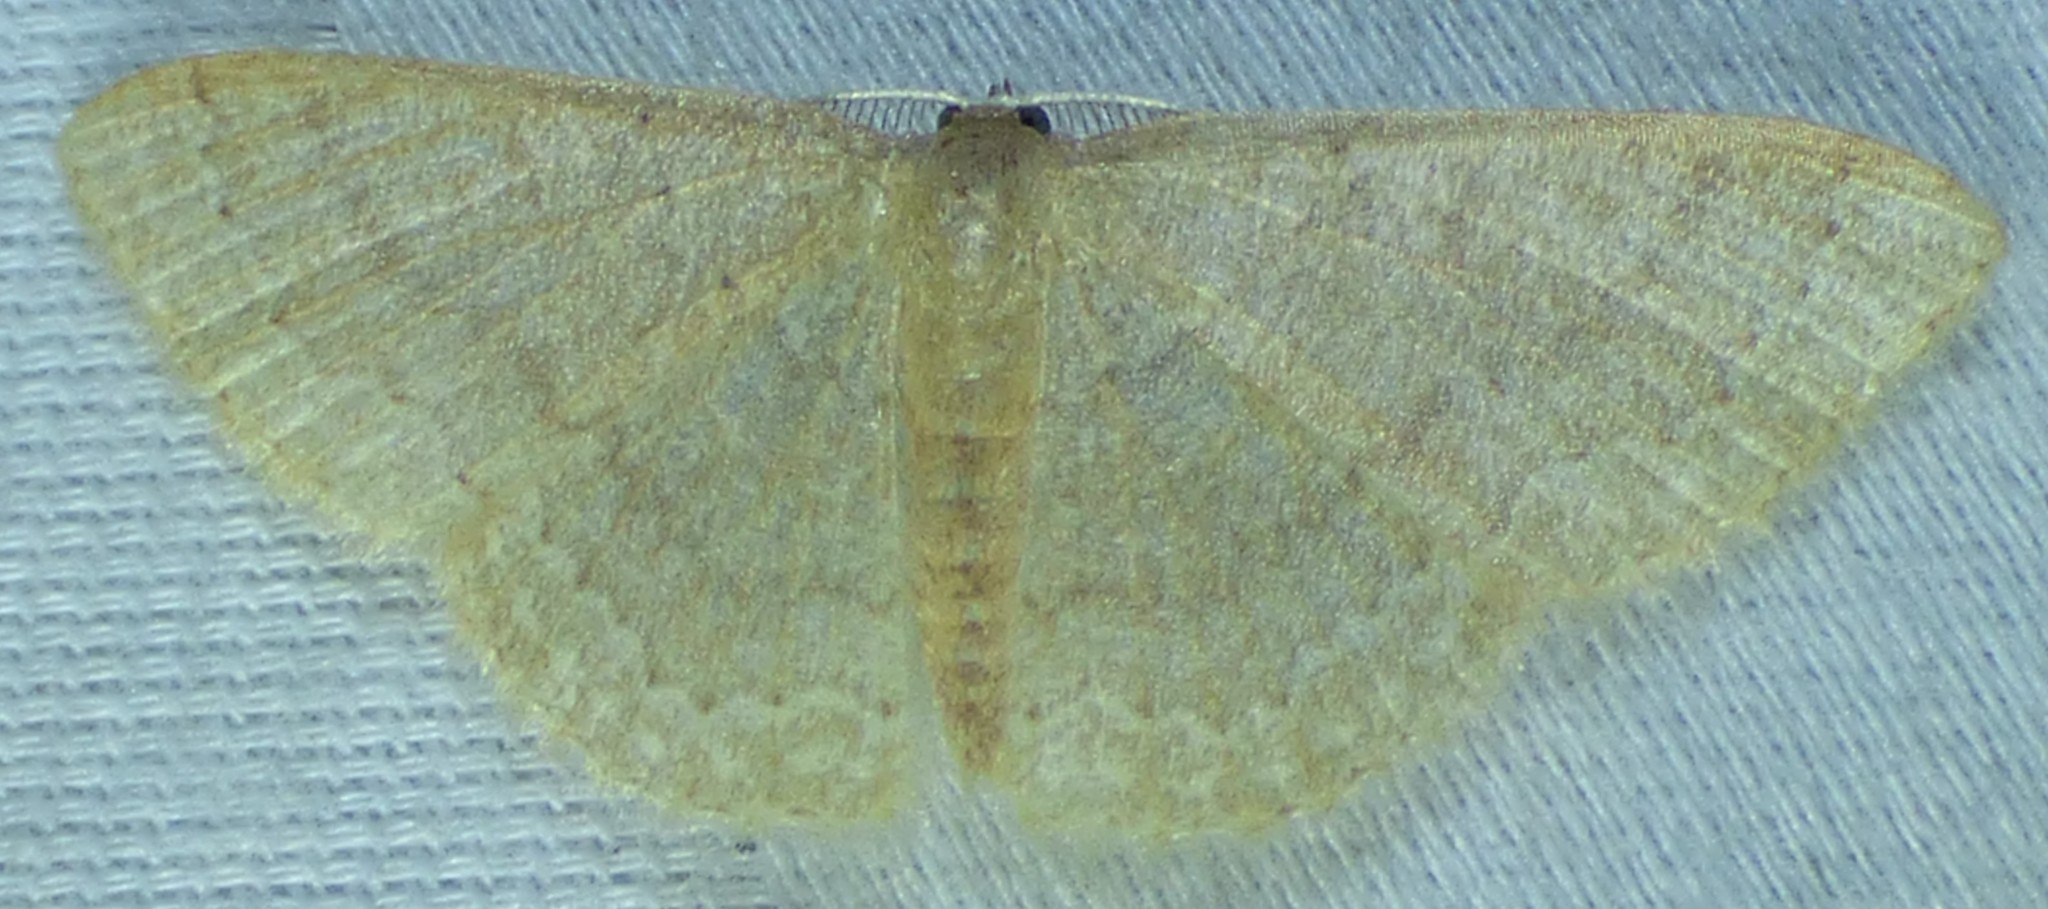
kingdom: Animalia
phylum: Arthropoda
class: Insecta
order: Lepidoptera
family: Geometridae
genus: Pleuroprucha
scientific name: Pleuroprucha insulsaria
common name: Common tan wave
